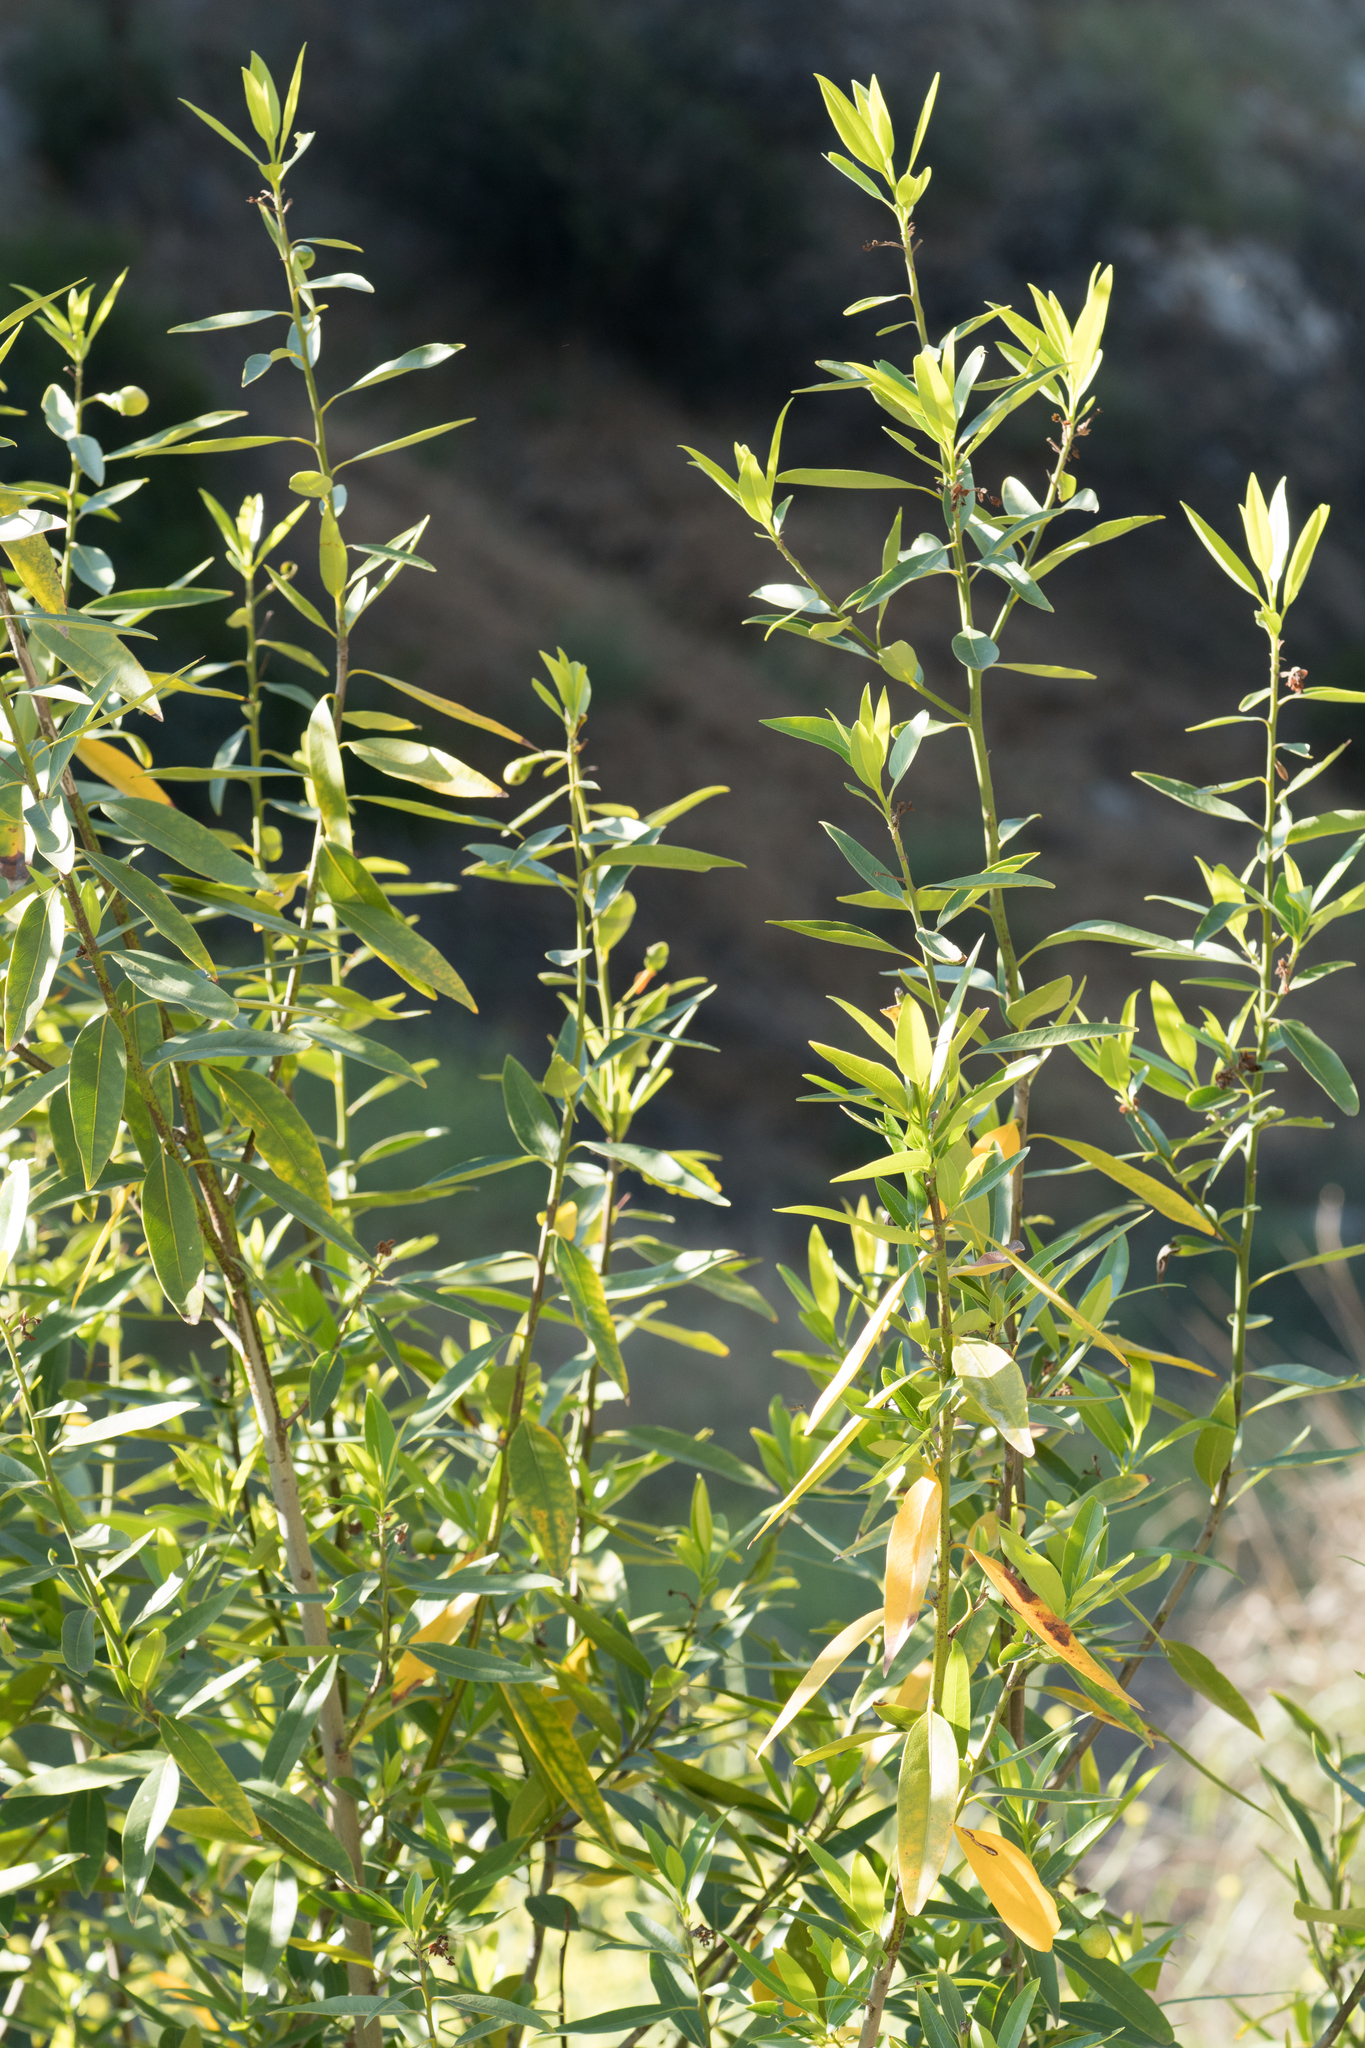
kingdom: Plantae
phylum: Tracheophyta
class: Magnoliopsida
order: Laurales
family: Lauraceae
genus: Umbellularia
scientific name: Umbellularia californica
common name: California bay
